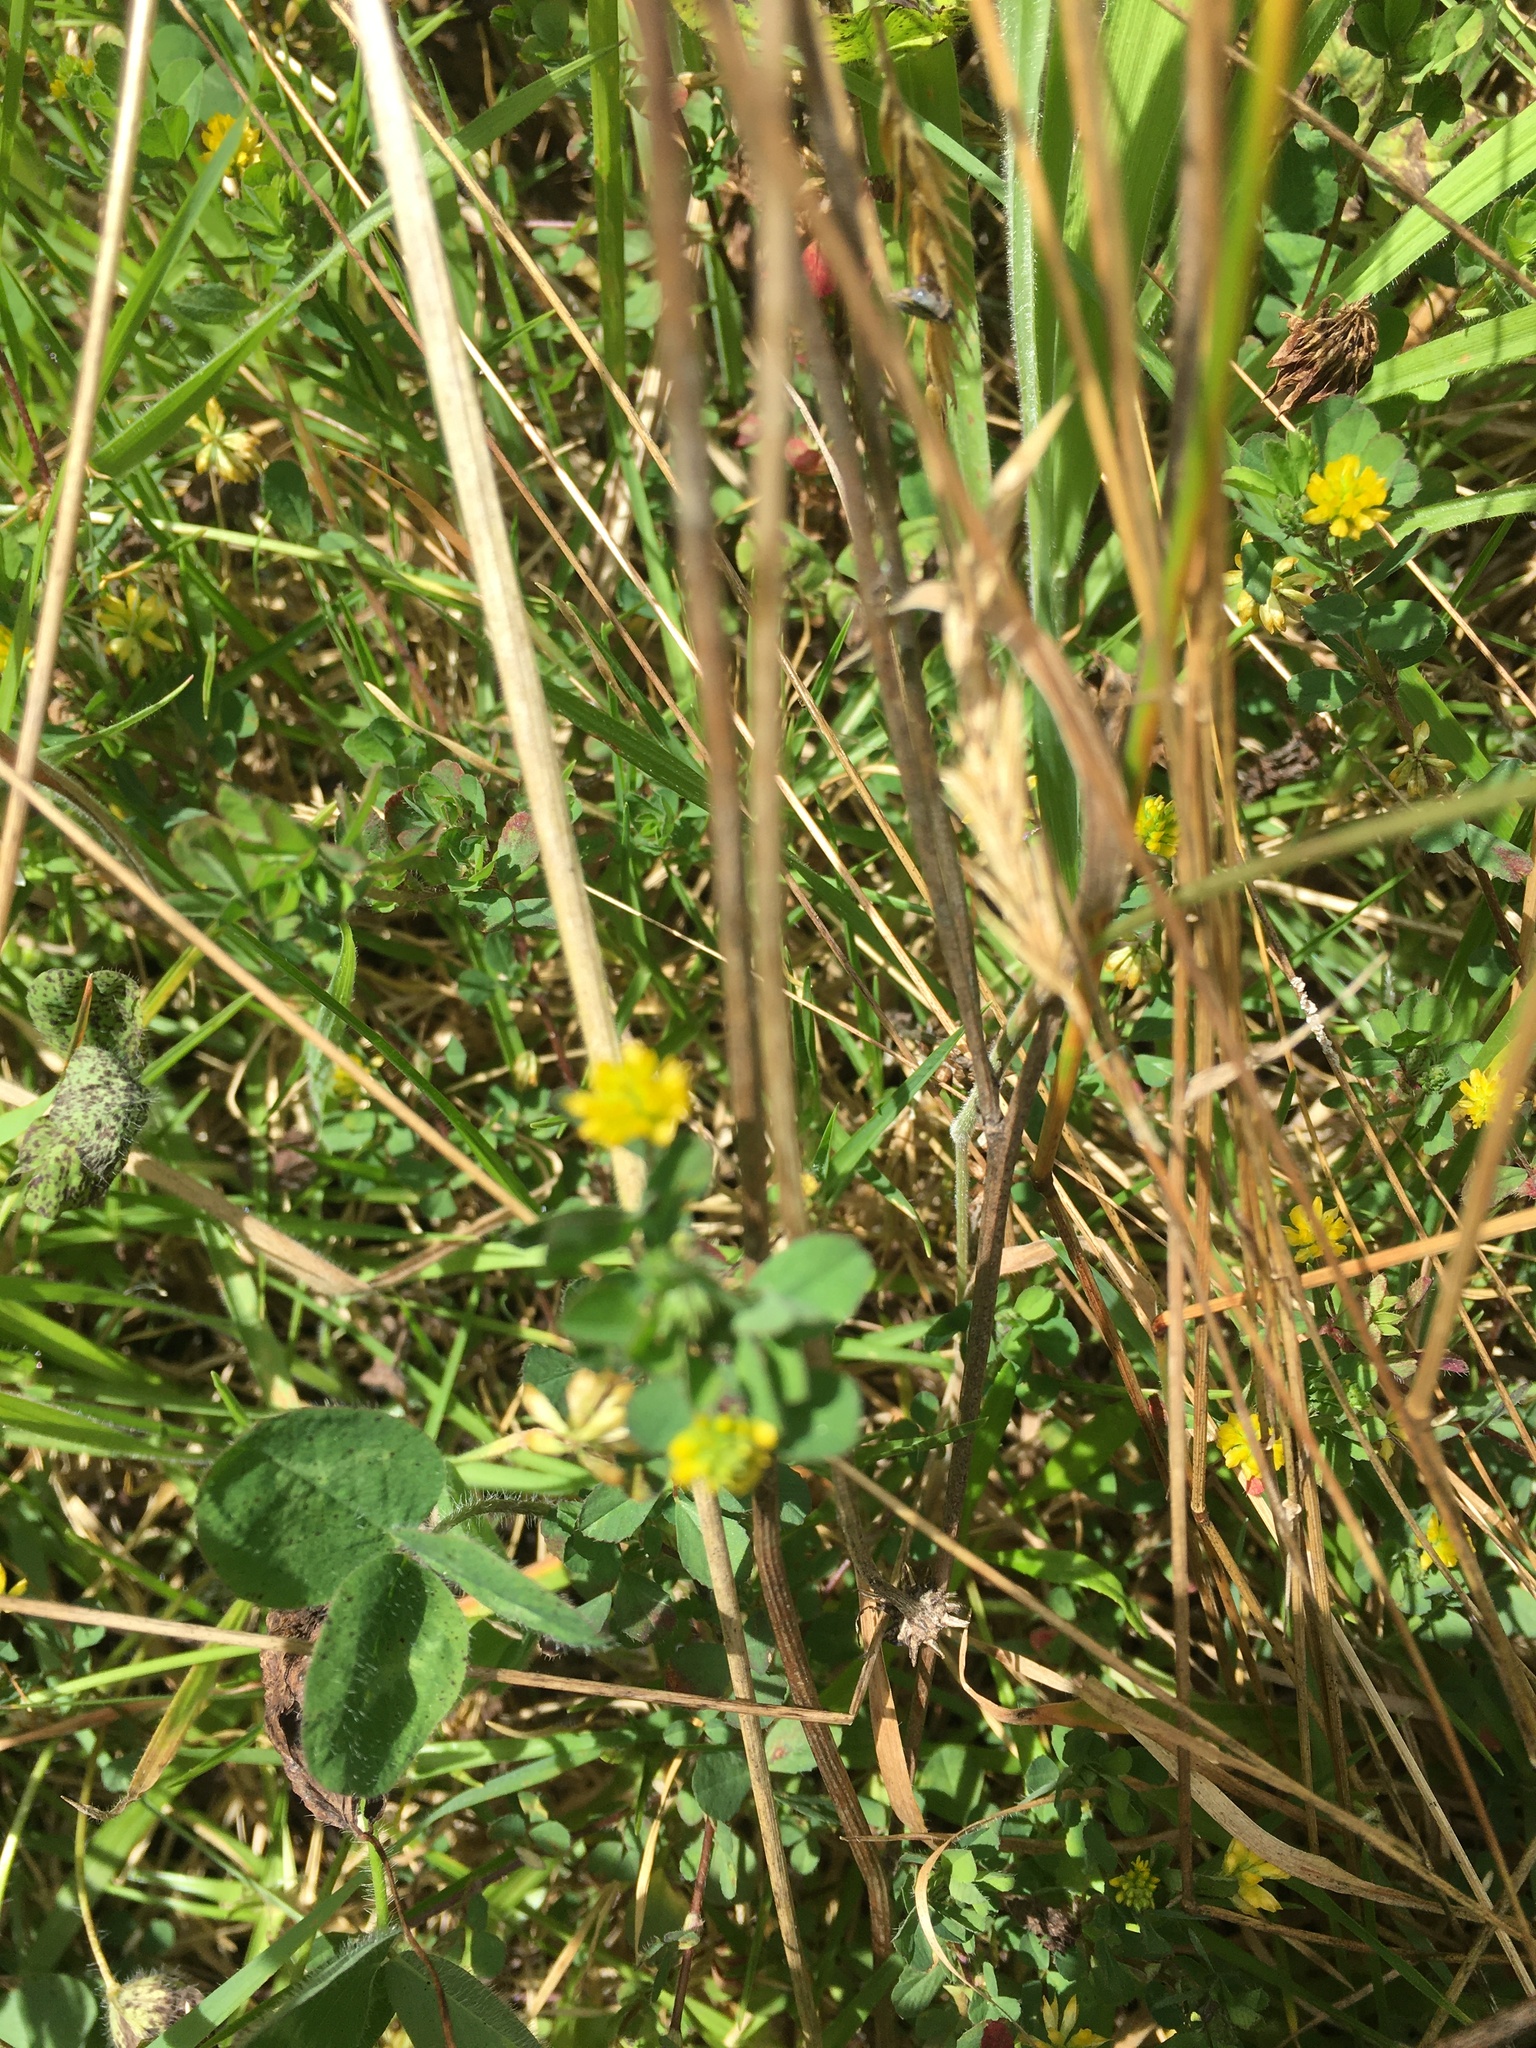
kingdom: Plantae
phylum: Tracheophyta
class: Magnoliopsida
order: Fabales
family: Fabaceae
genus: Trifolium
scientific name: Trifolium dubium
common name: Suckling clover
